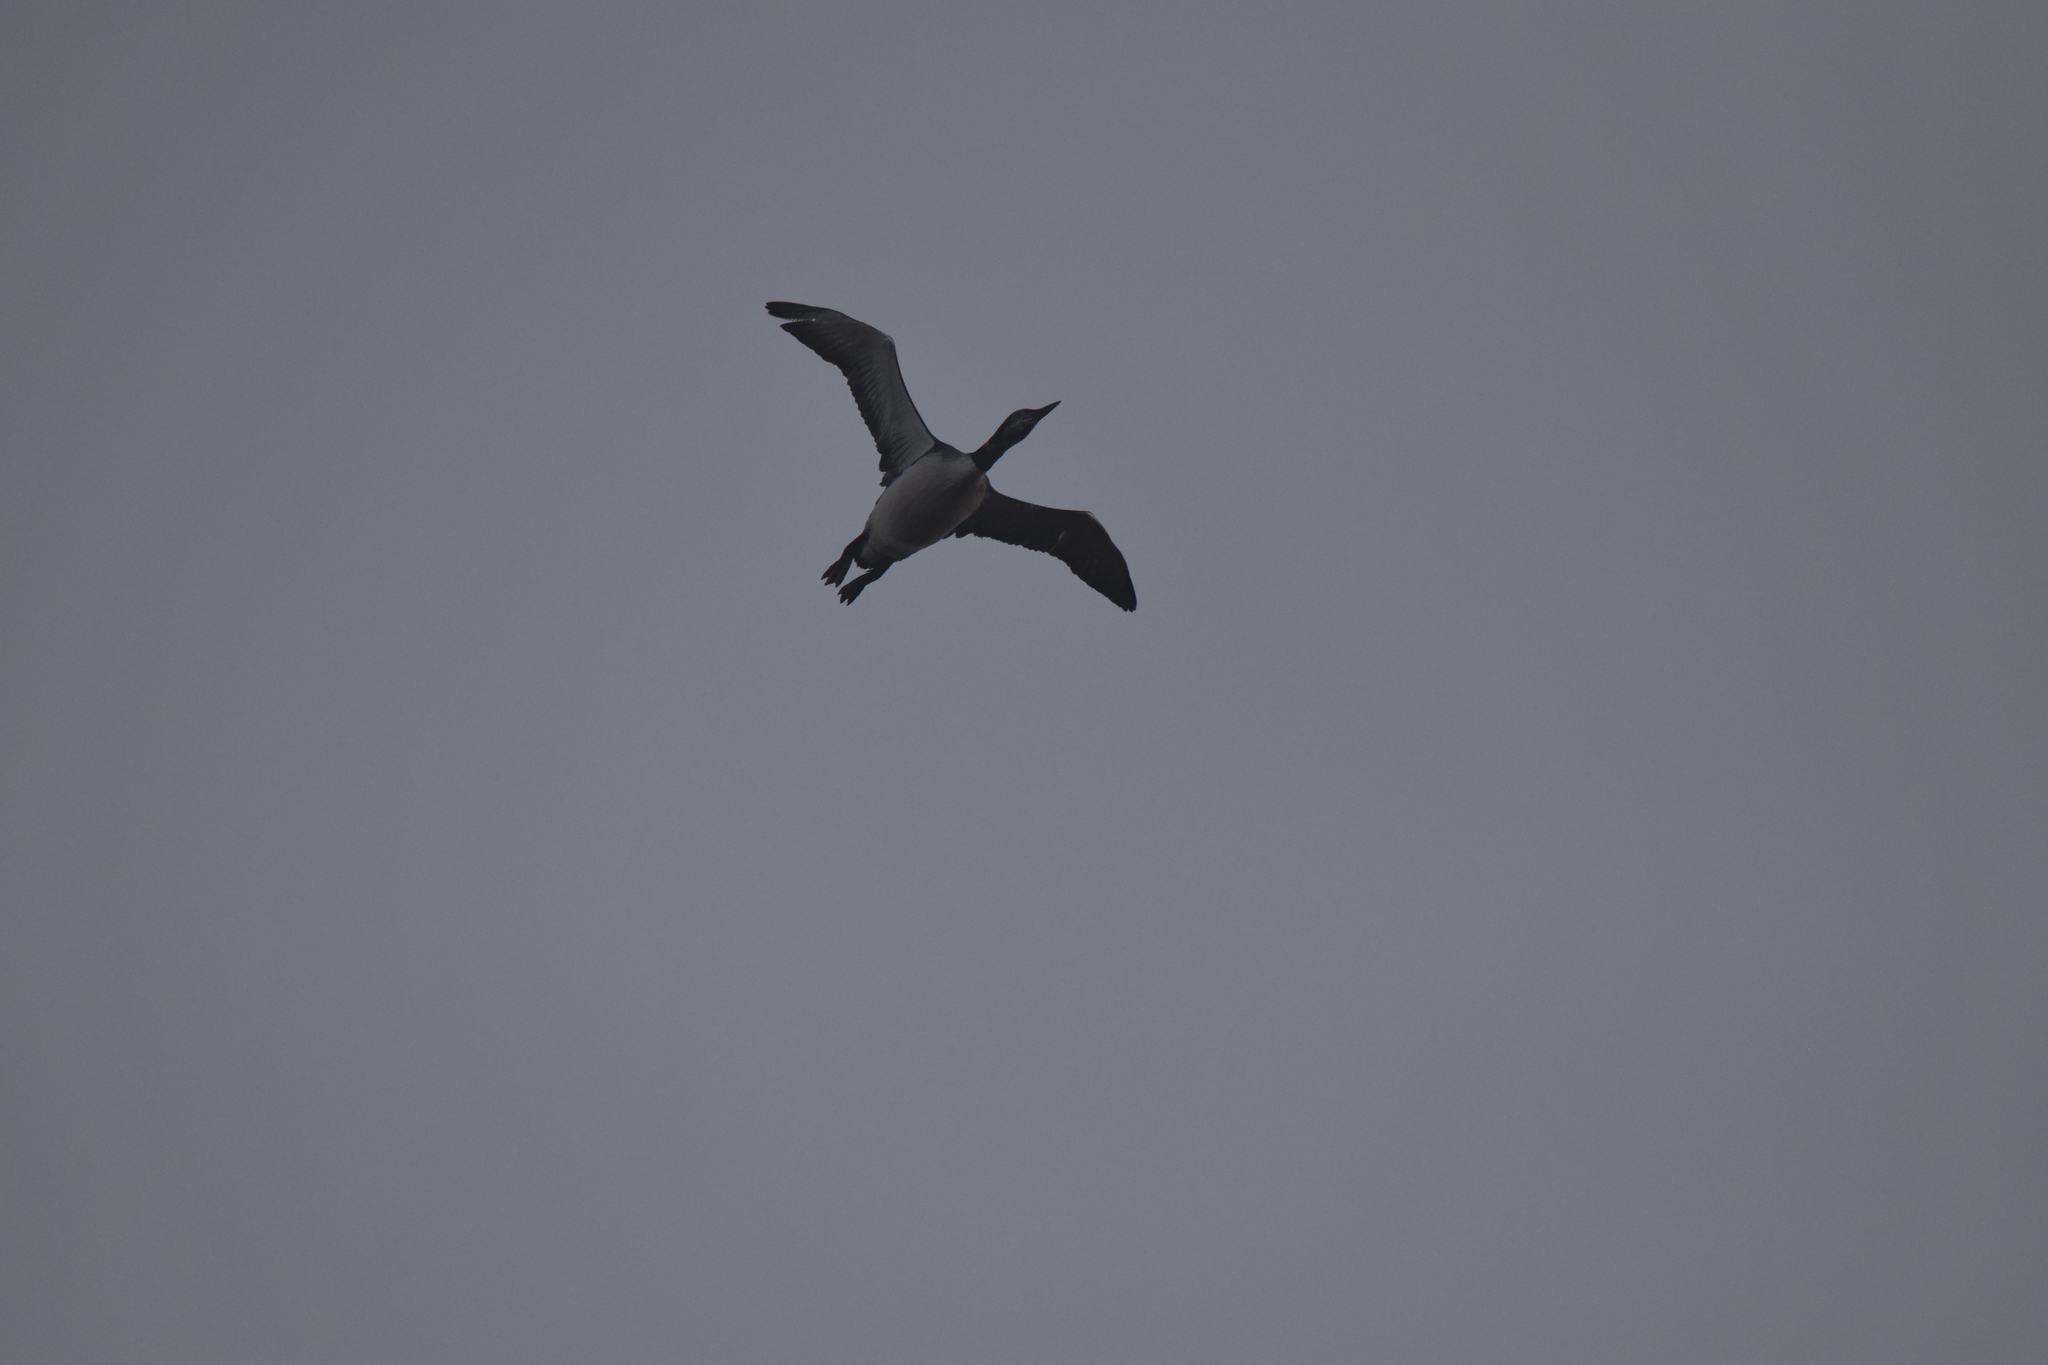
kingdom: Animalia
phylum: Chordata
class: Aves
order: Gaviiformes
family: Gaviidae
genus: Gavia
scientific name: Gavia immer
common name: Common loon
